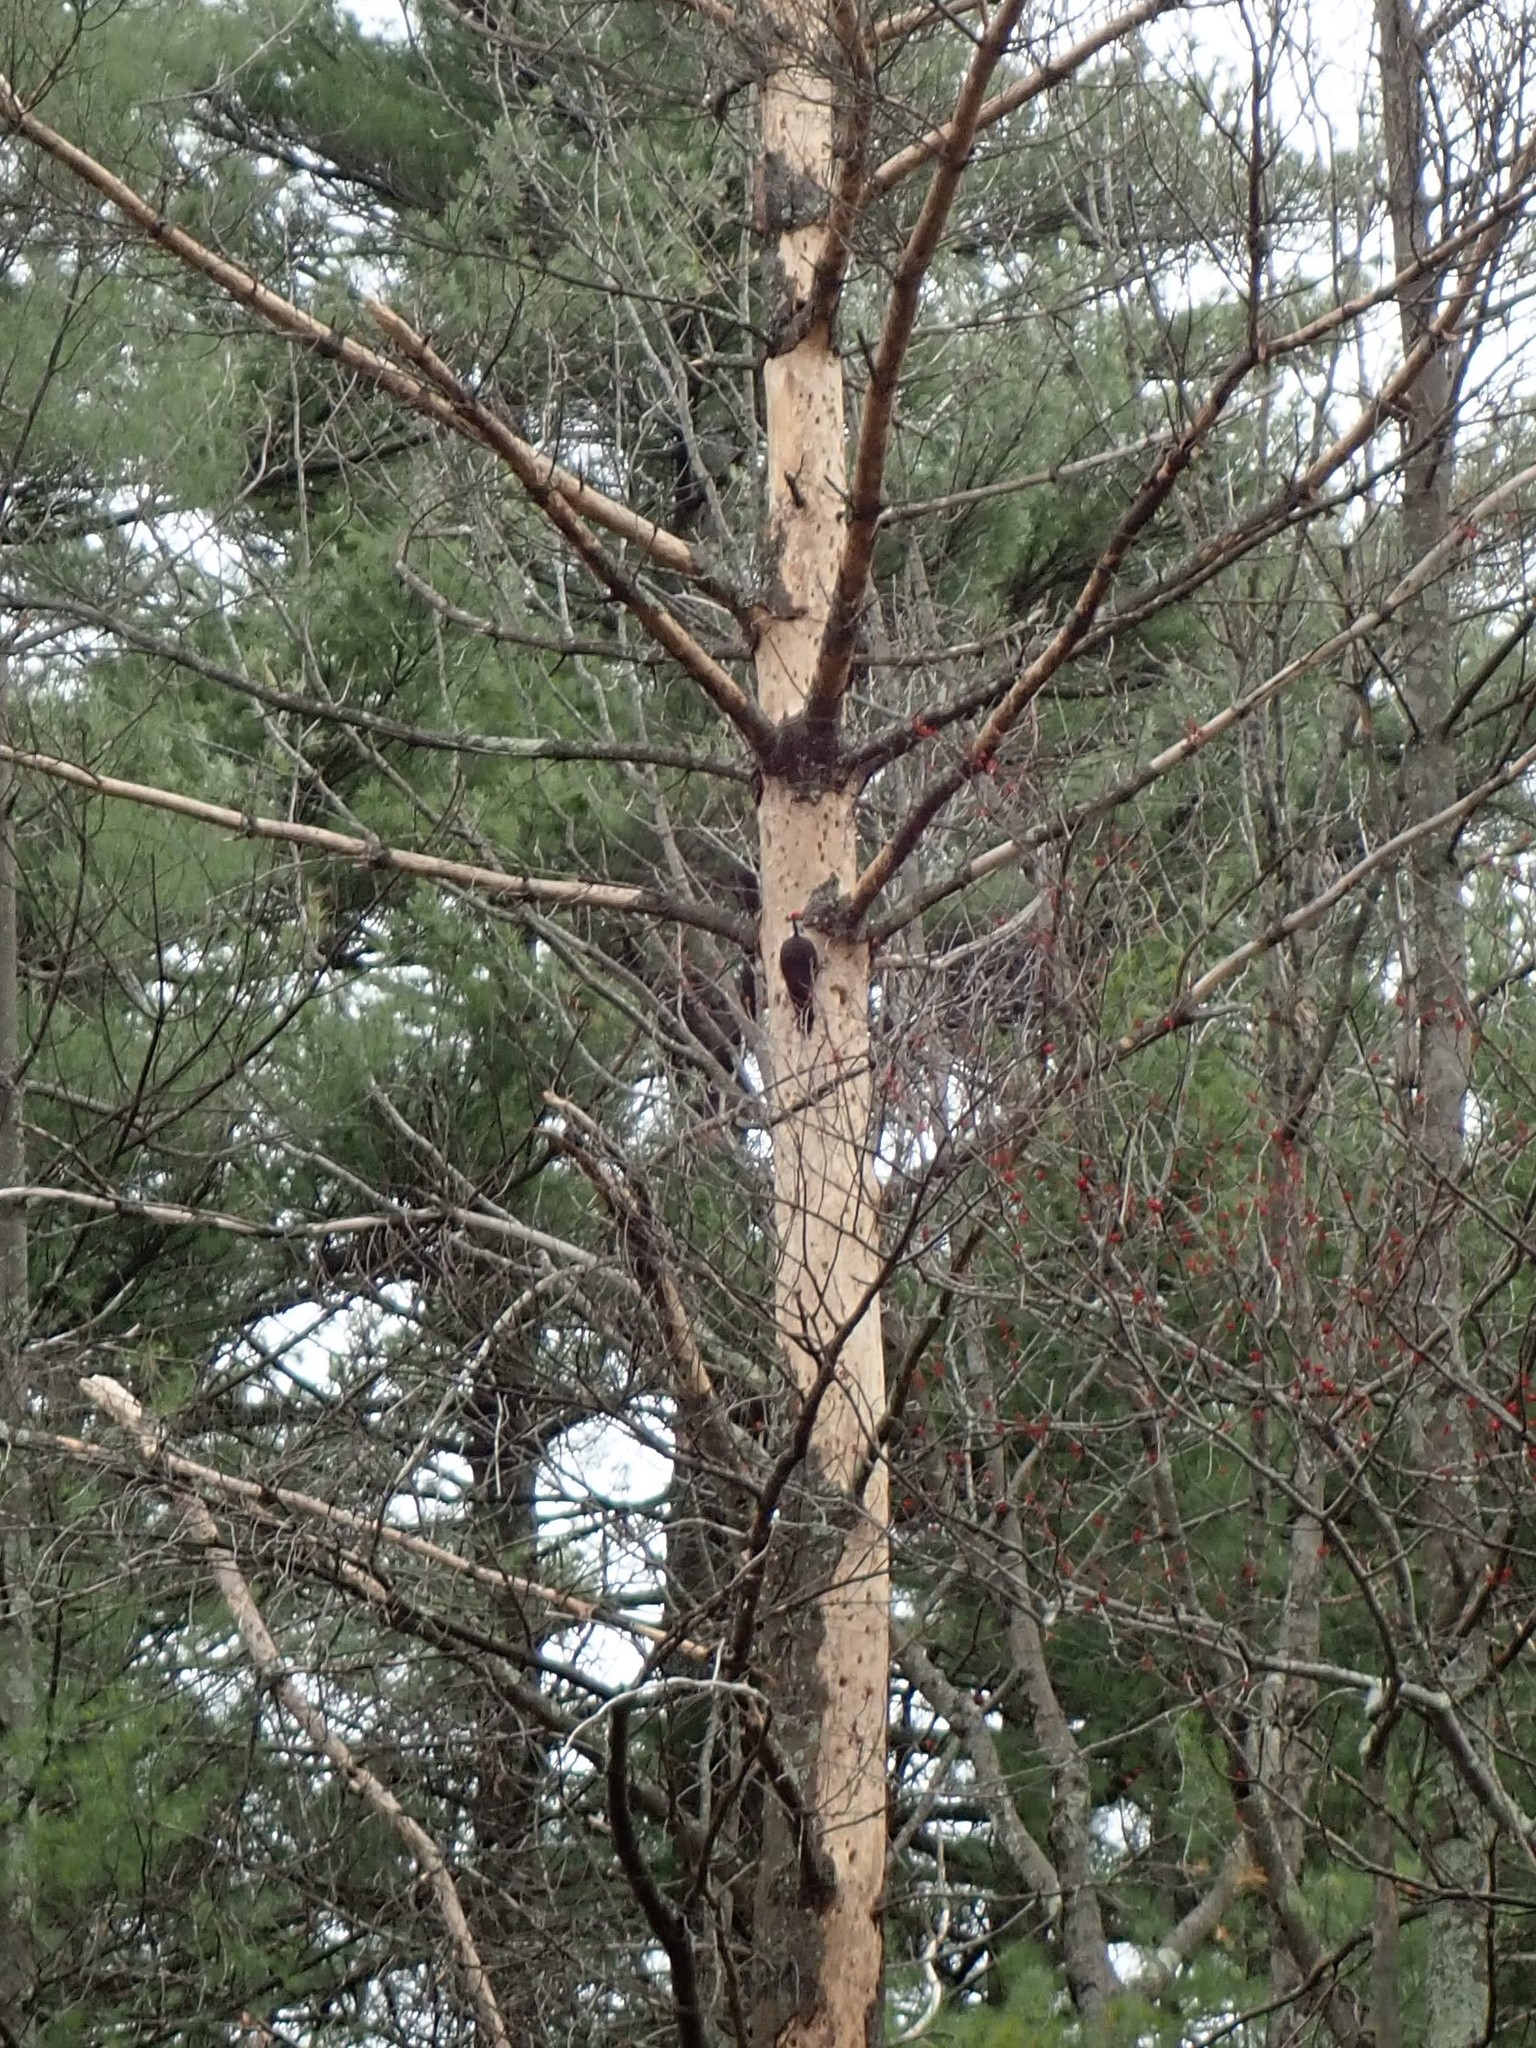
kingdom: Animalia
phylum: Chordata
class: Aves
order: Piciformes
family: Picidae
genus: Dryocopus
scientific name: Dryocopus pileatus
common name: Pileated woodpecker
